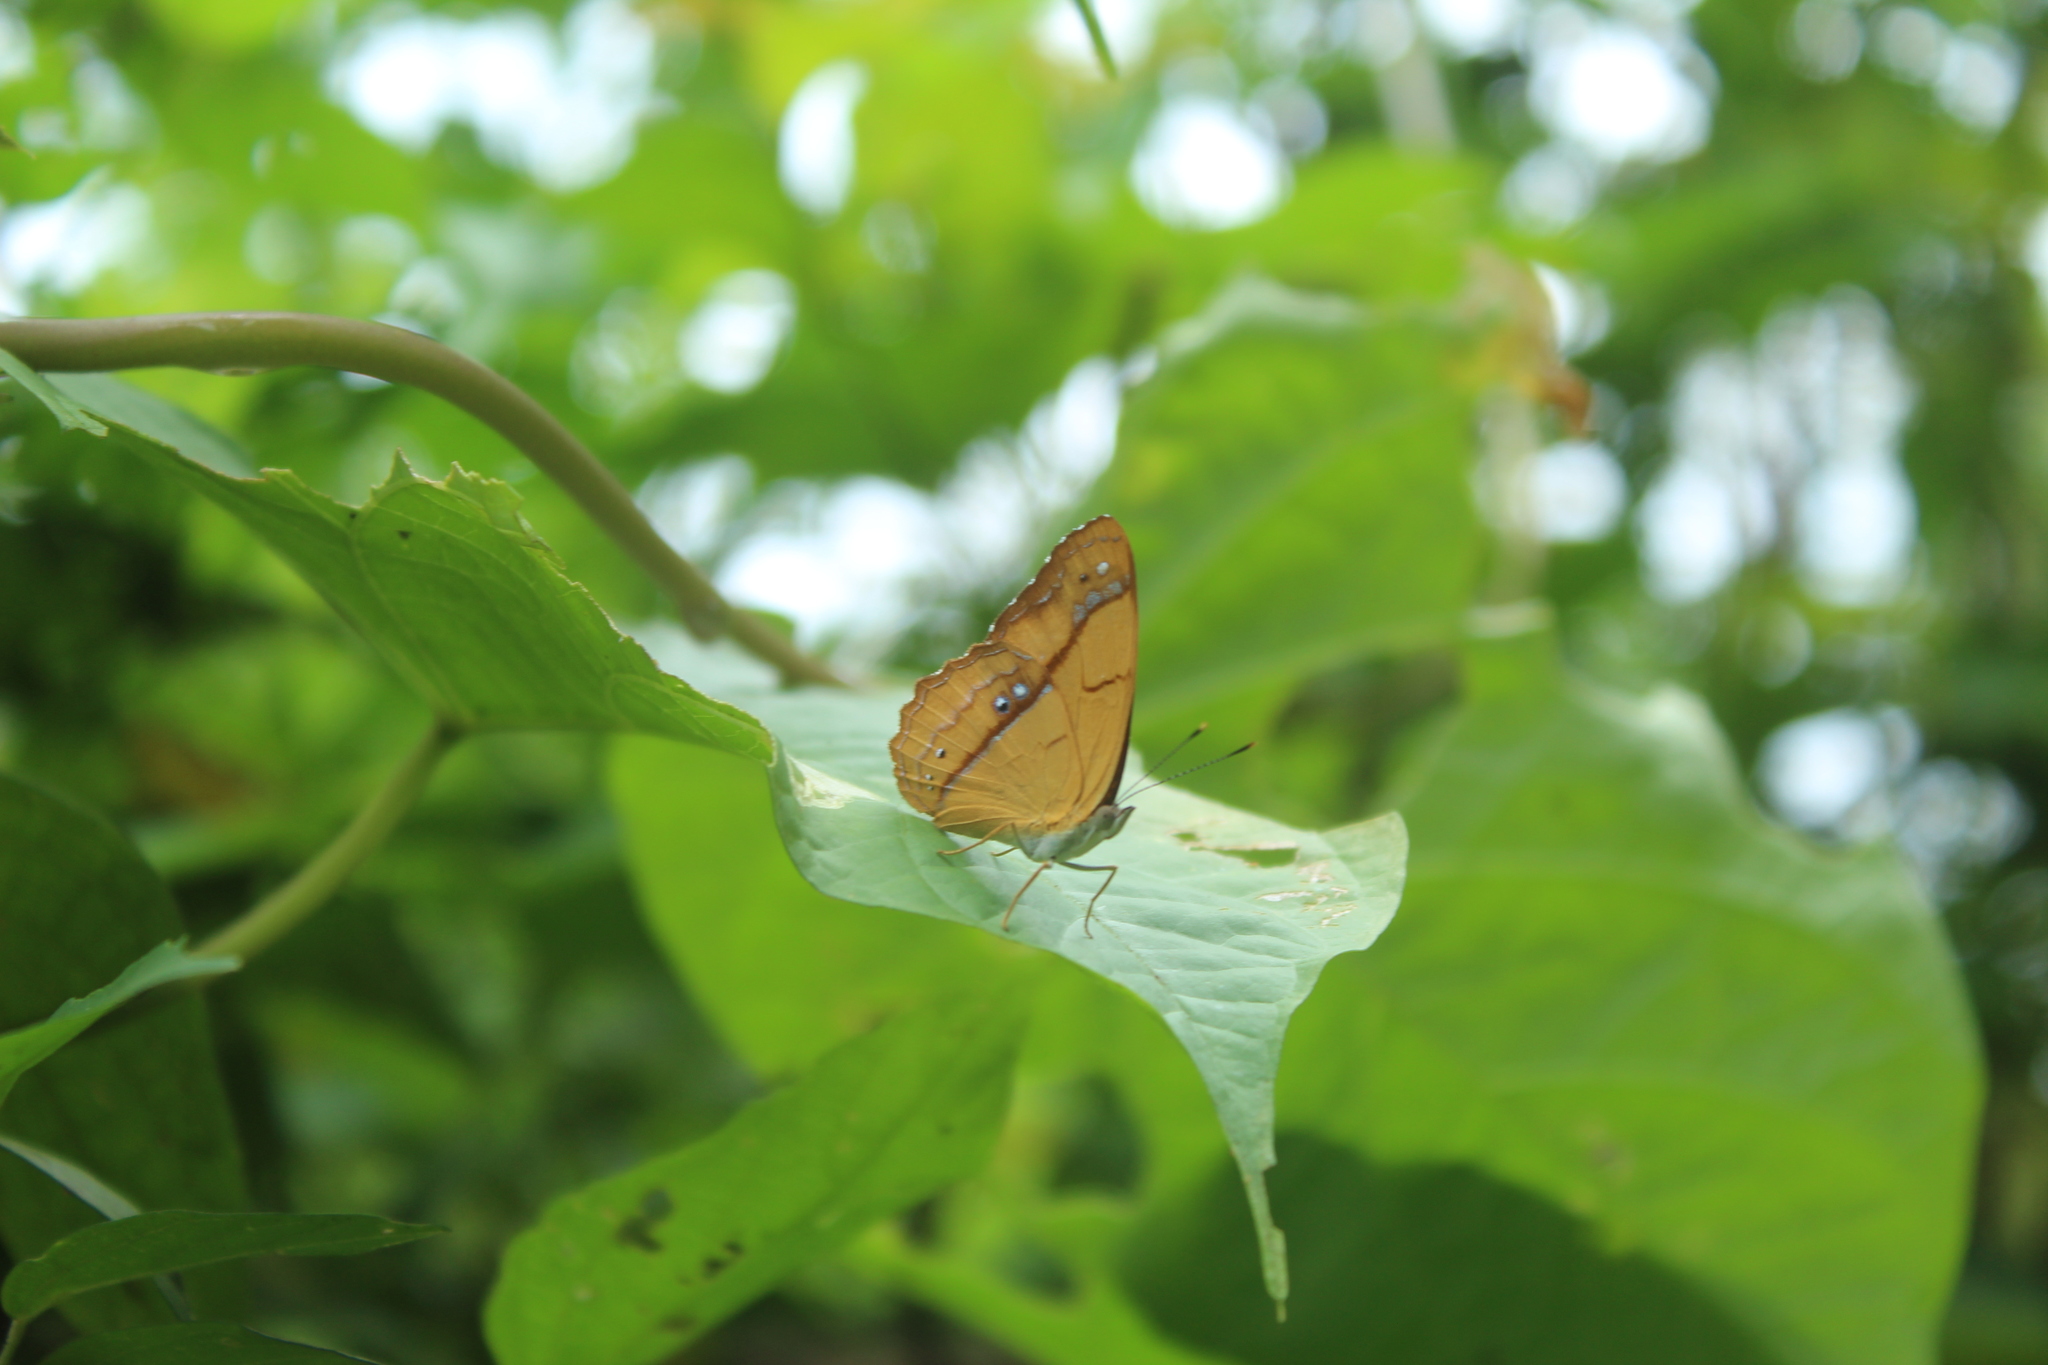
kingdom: Animalia
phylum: Arthropoda
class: Insecta
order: Lepidoptera
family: Nymphalidae
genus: Nica
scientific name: Nica flavilla
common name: Mandarin nica
